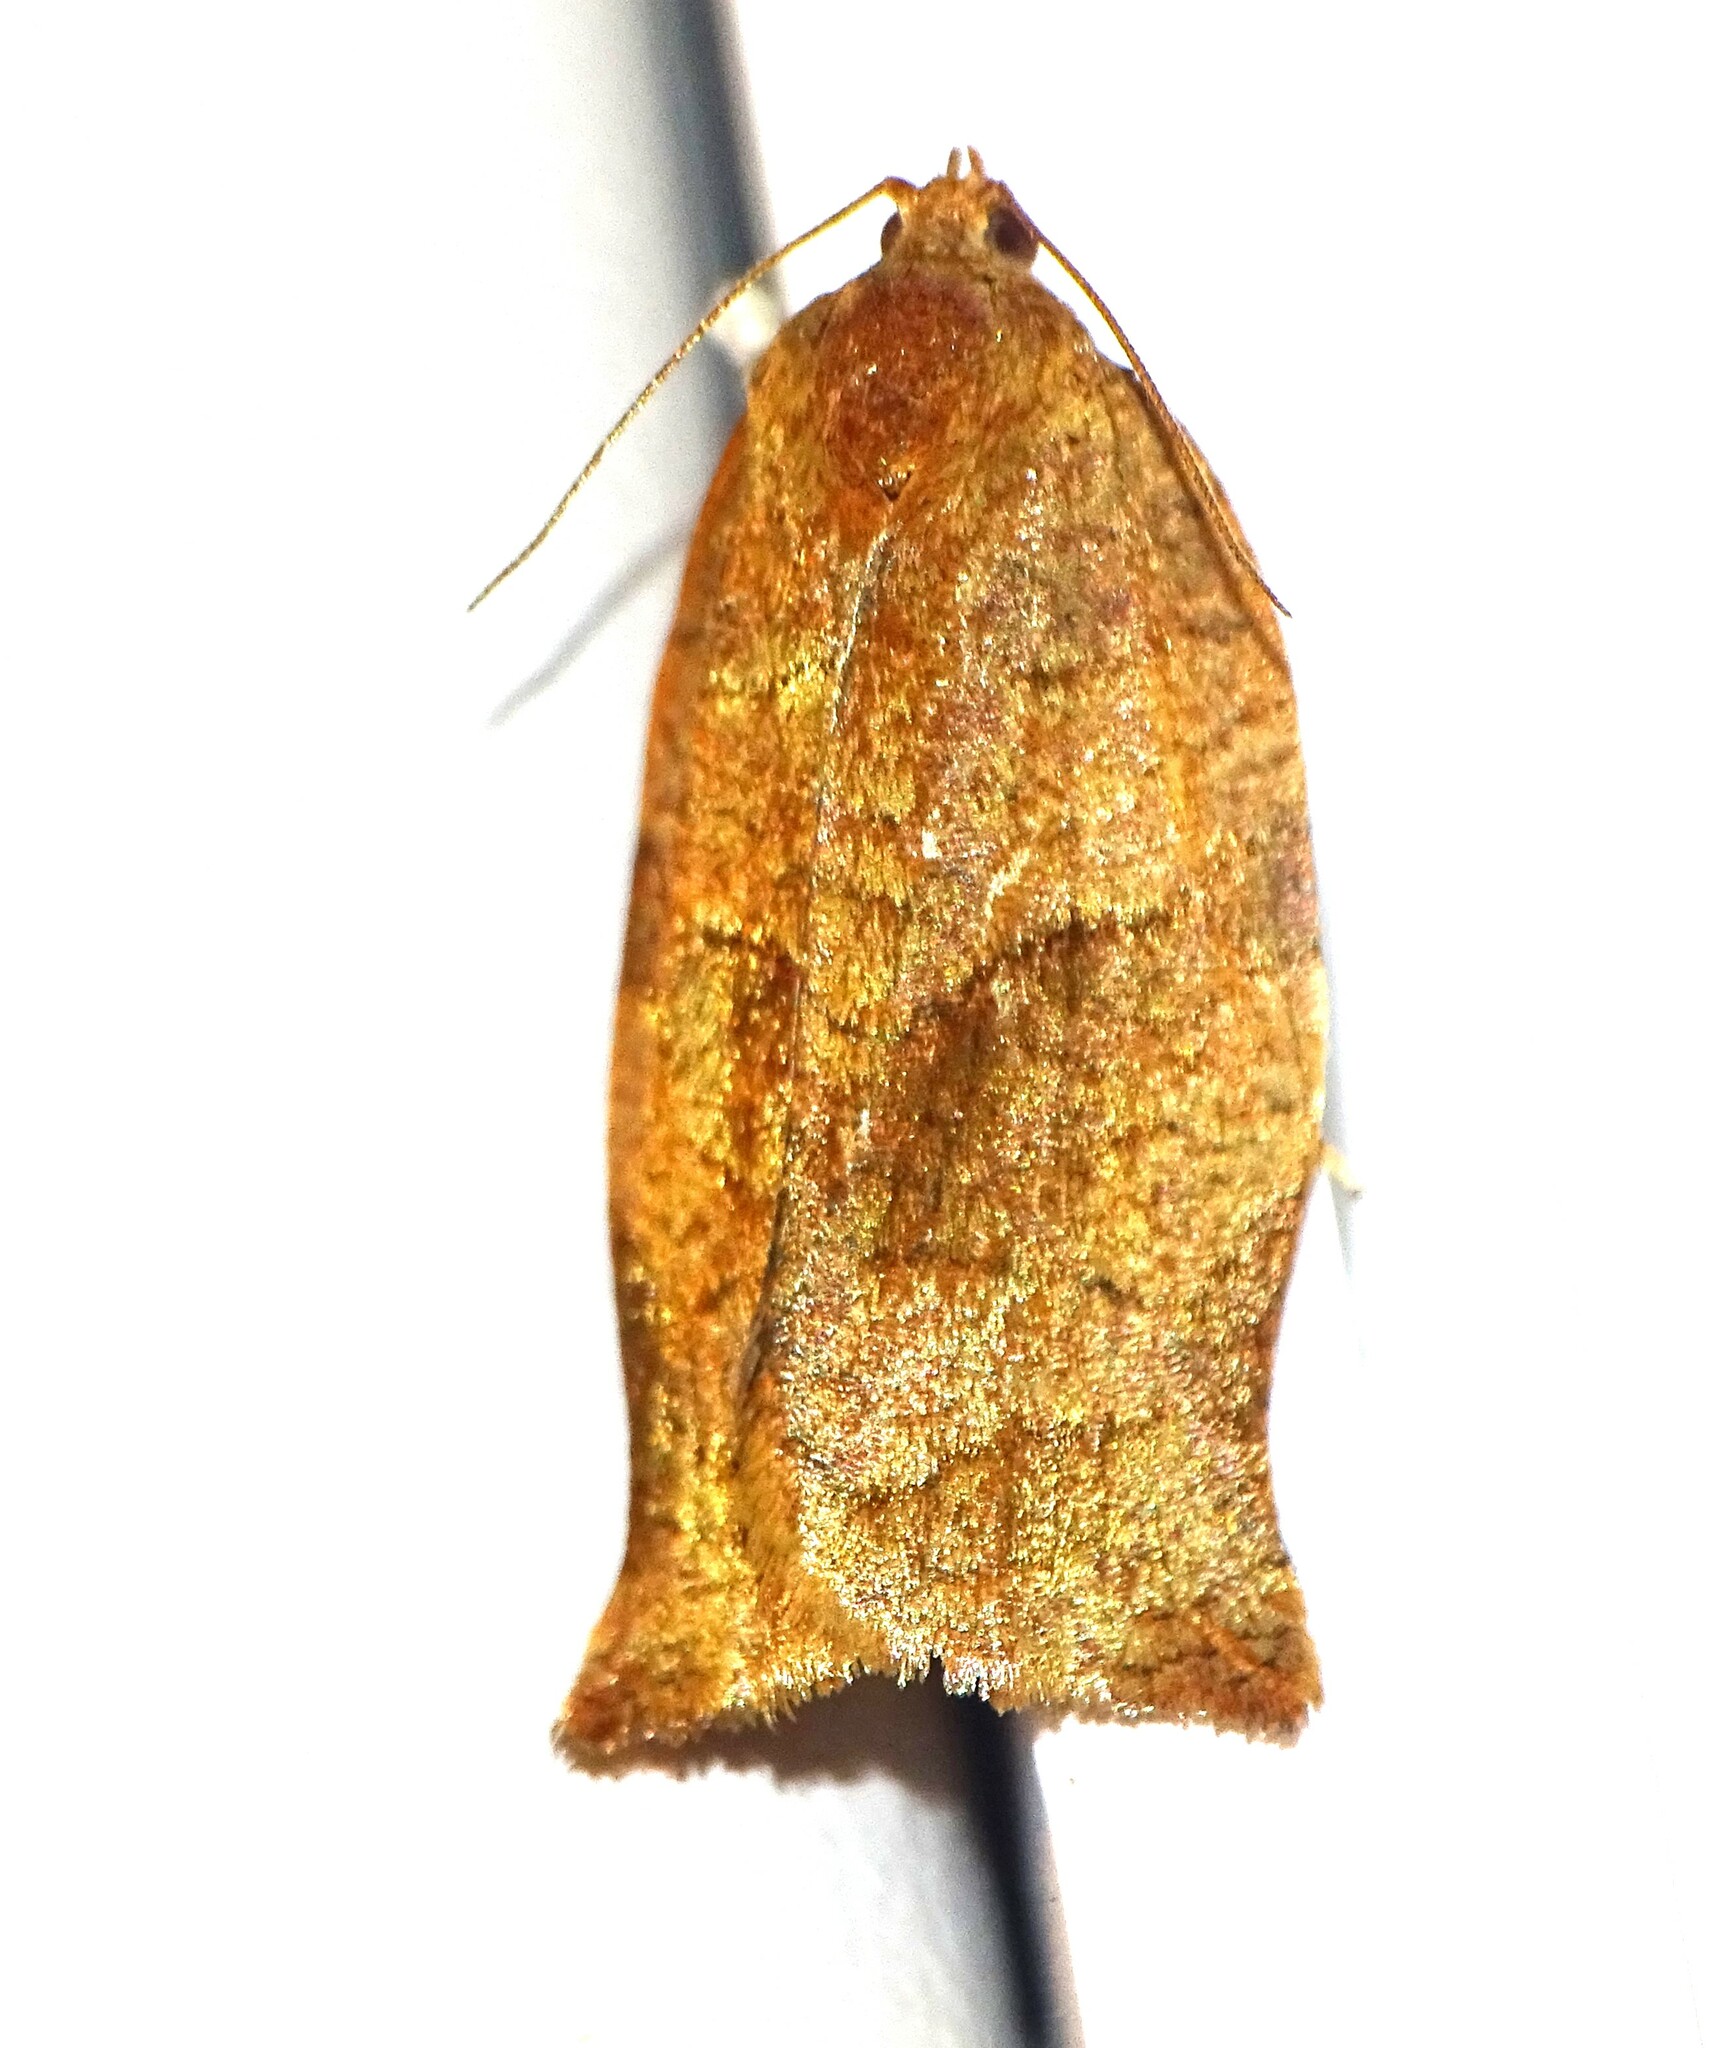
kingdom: Animalia
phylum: Arthropoda
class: Insecta
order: Lepidoptera
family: Tortricidae
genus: Choristoneura
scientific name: Choristoneura rosaceana
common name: Oblique-banded leafroller moth
